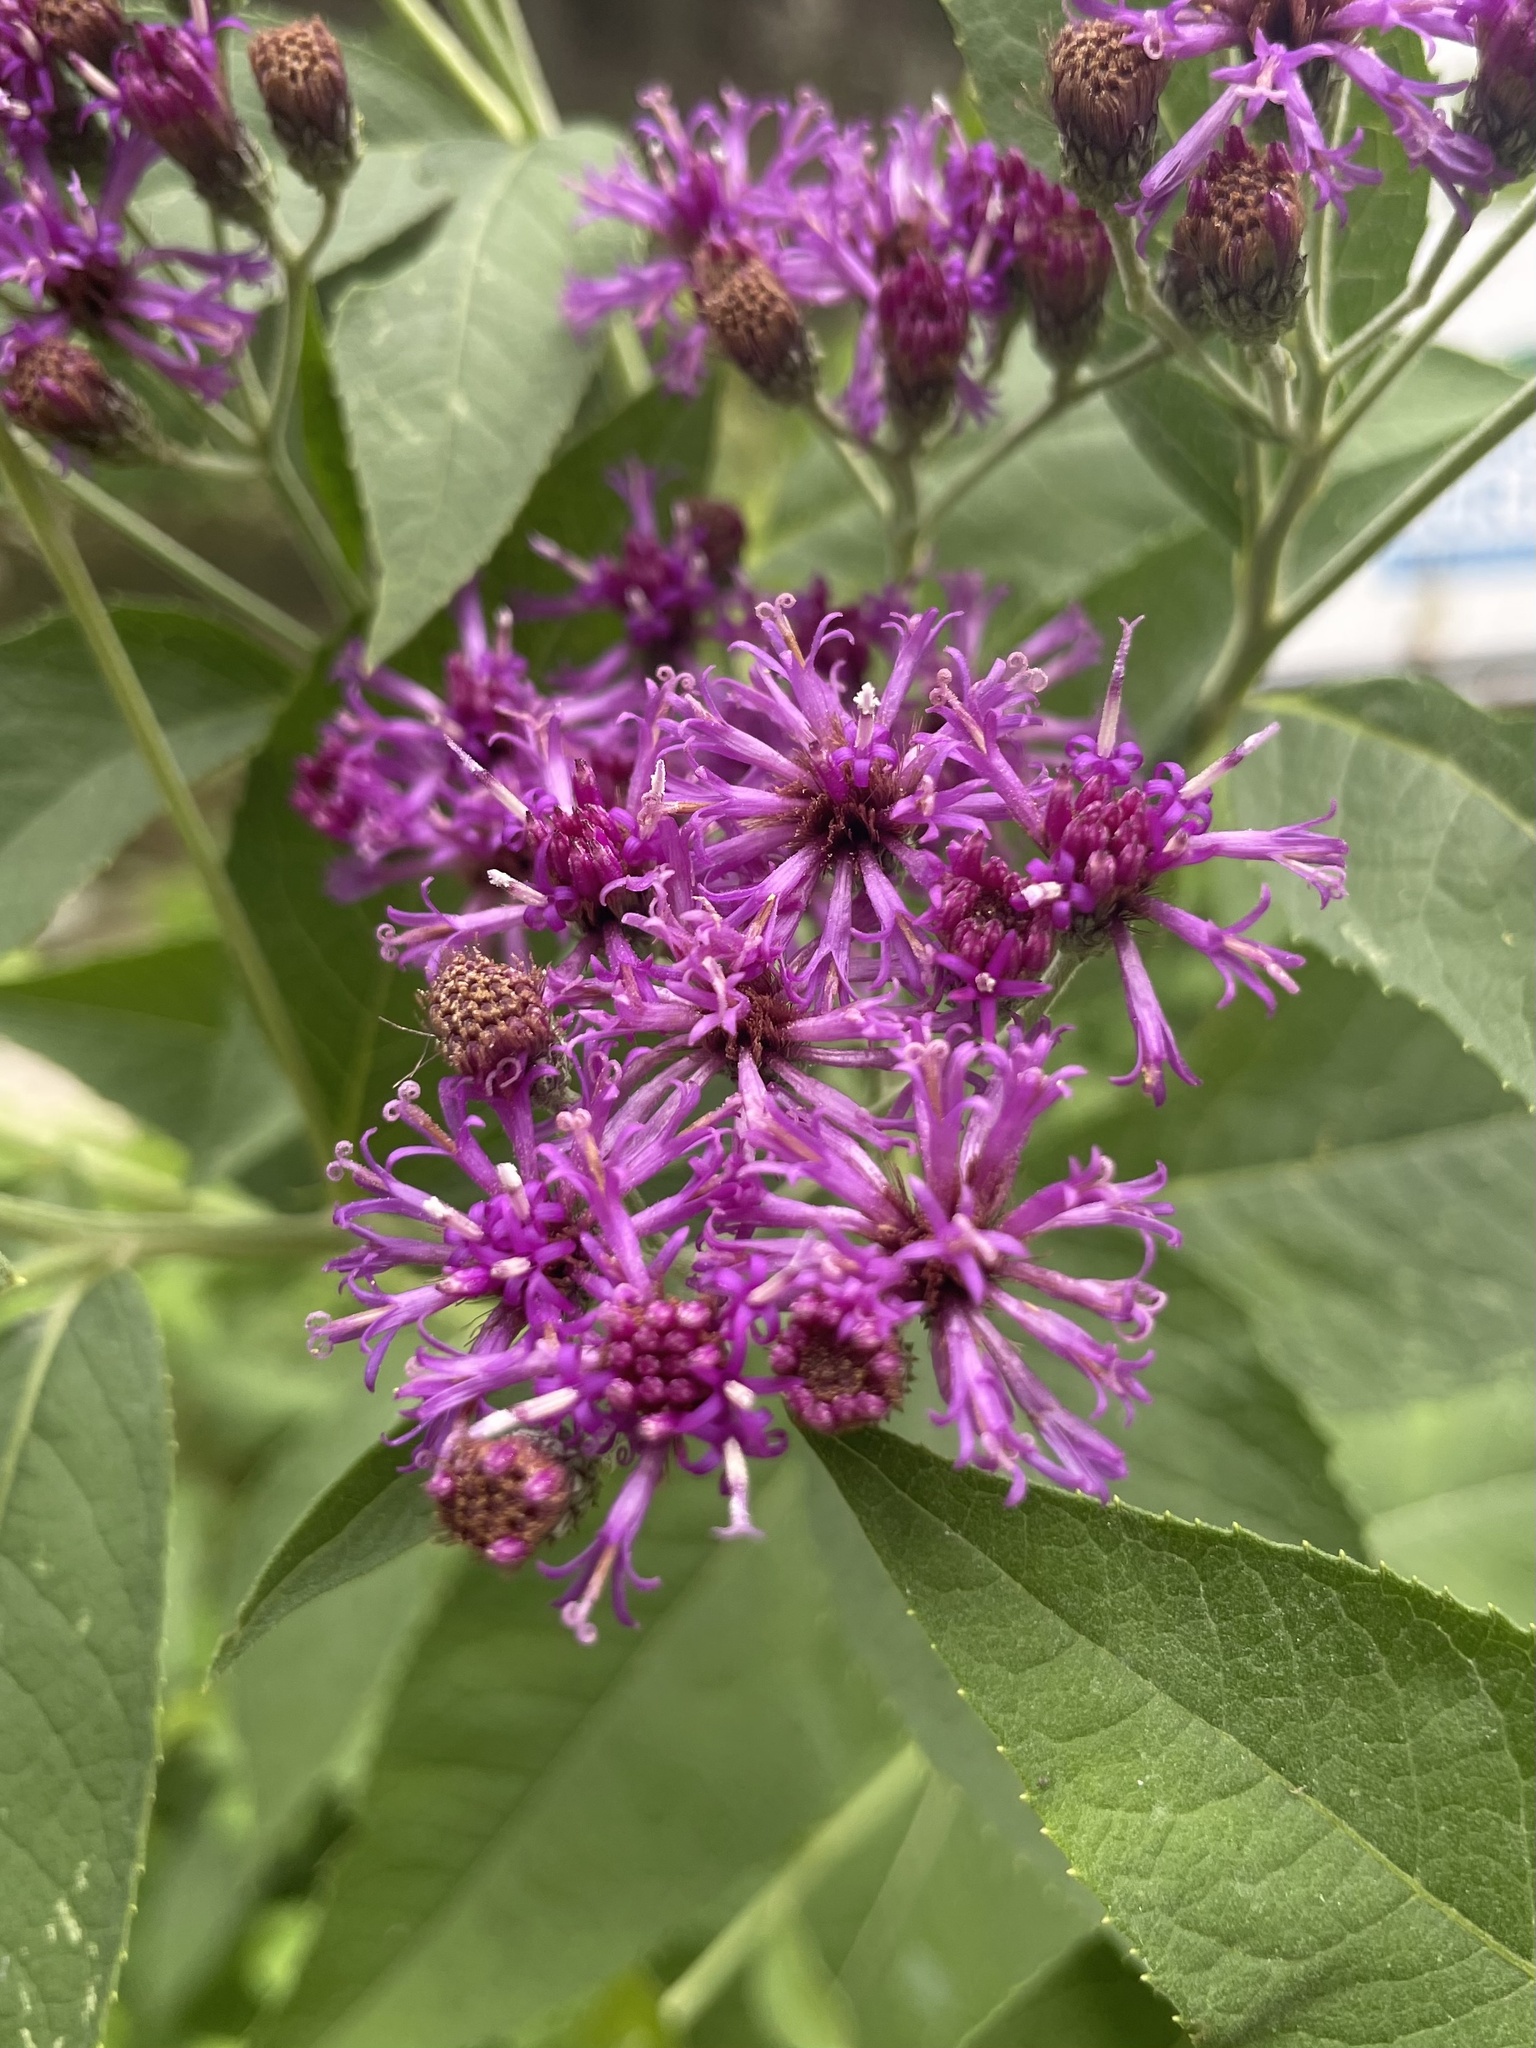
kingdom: Plantae
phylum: Tracheophyta
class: Magnoliopsida
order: Asterales
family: Asteraceae
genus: Vernonia
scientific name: Vernonia baldwinii
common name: Western ironweed
